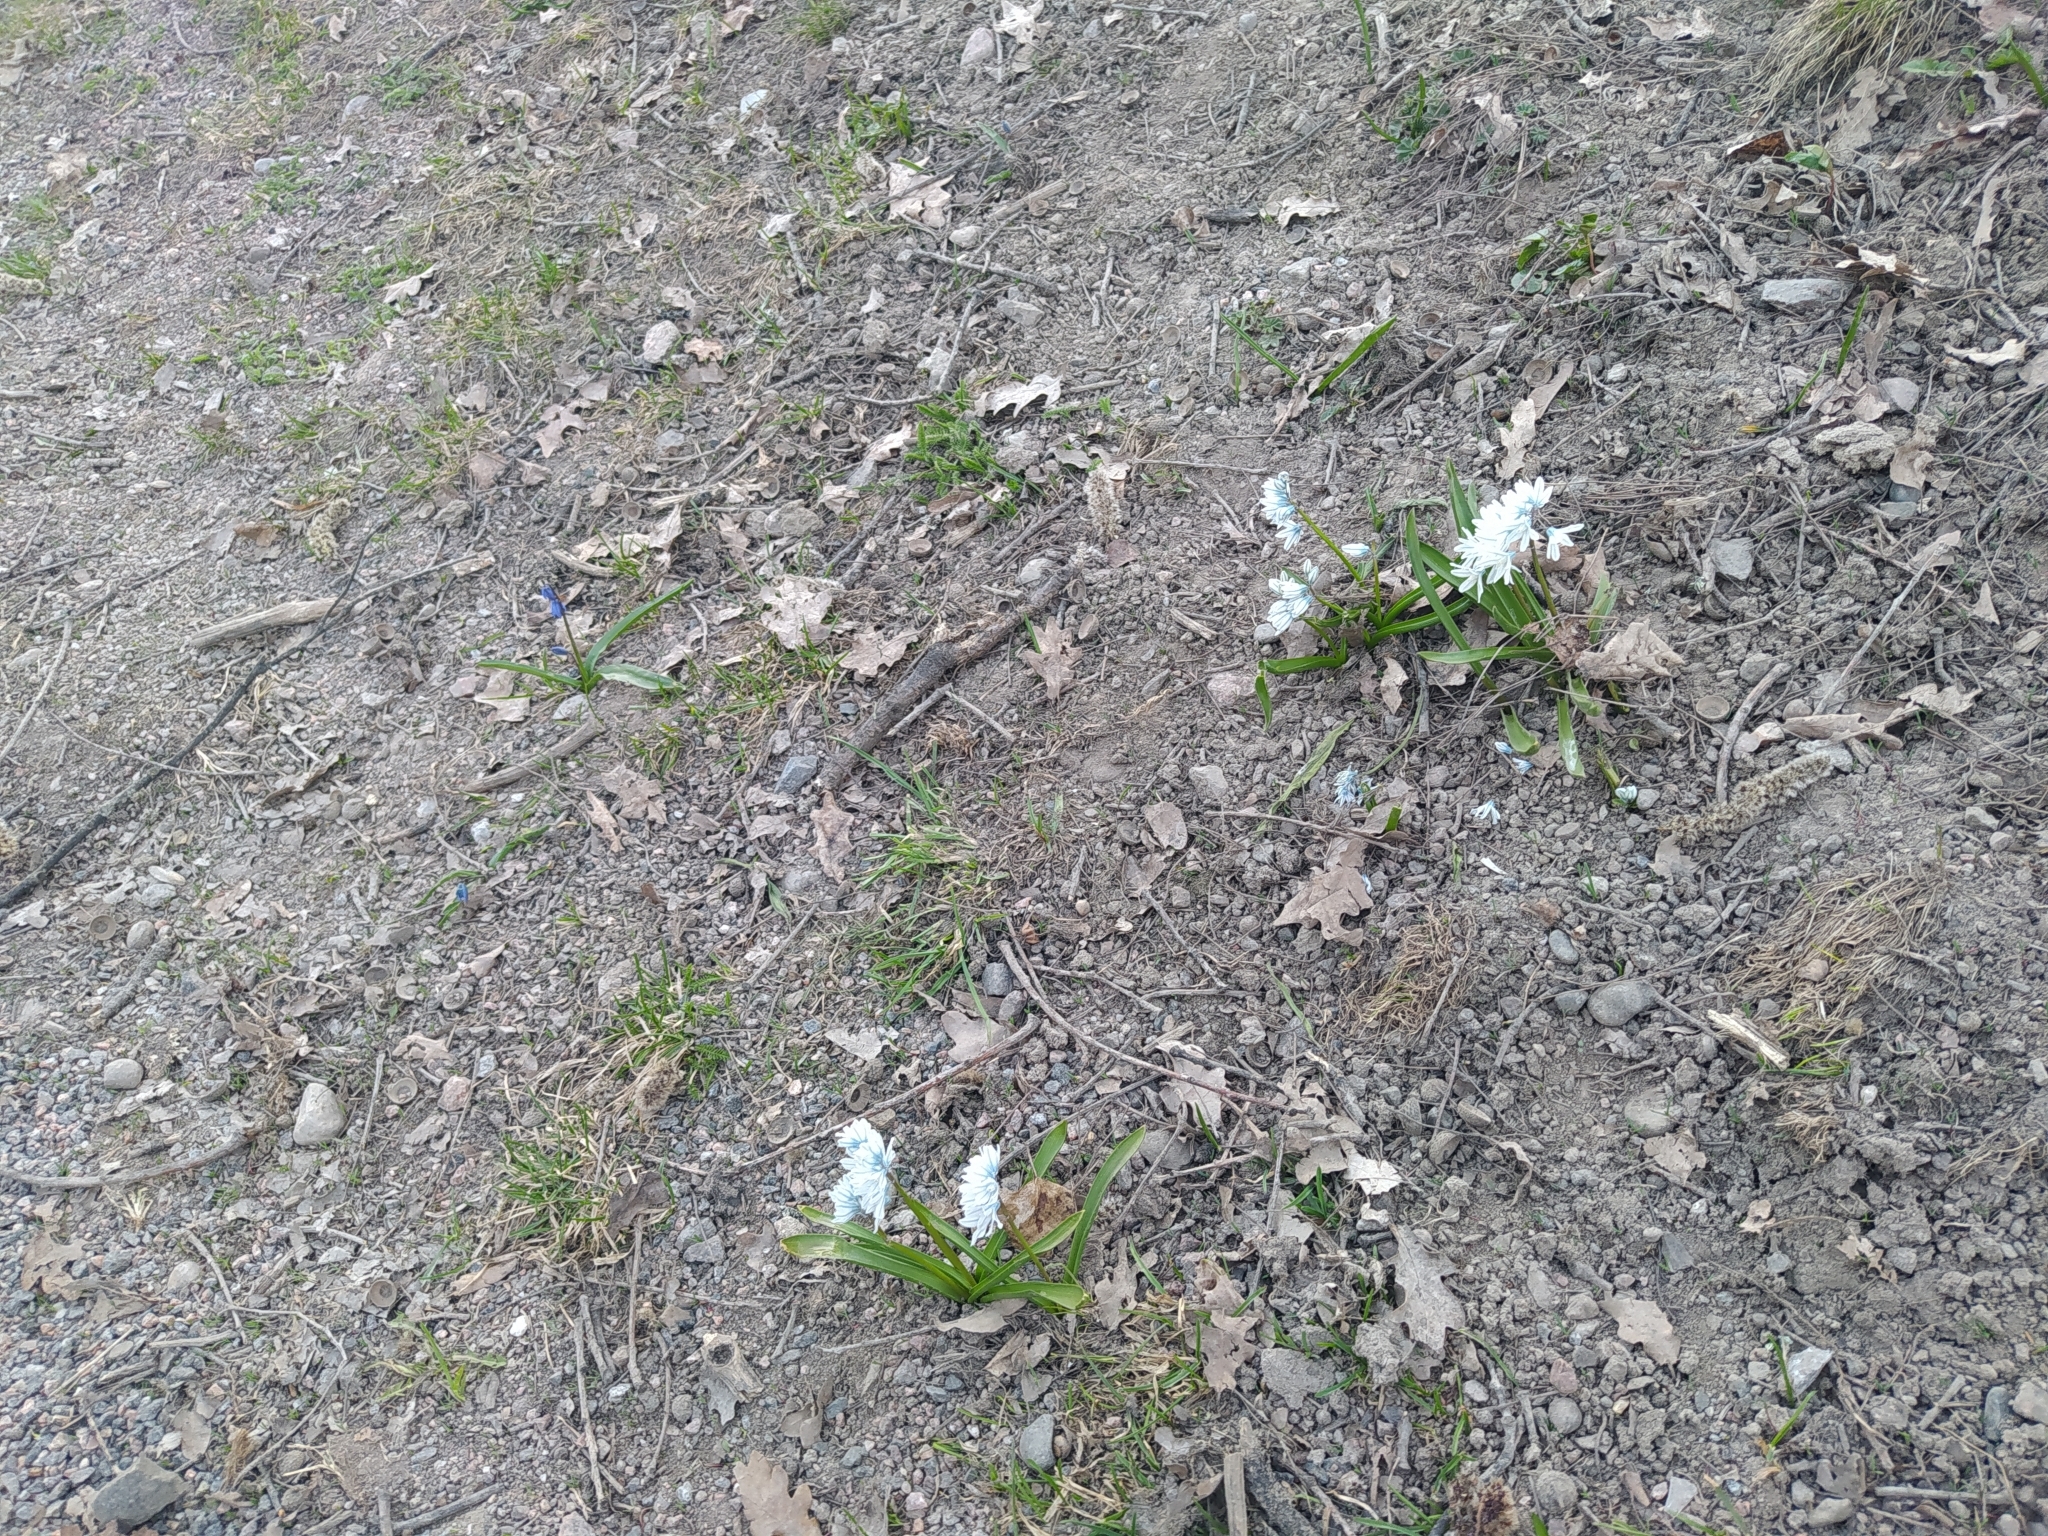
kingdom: Plantae
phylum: Tracheophyta
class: Liliopsida
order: Asparagales
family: Asparagaceae
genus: Puschkinia
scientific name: Puschkinia scilloides
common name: Striped squill
